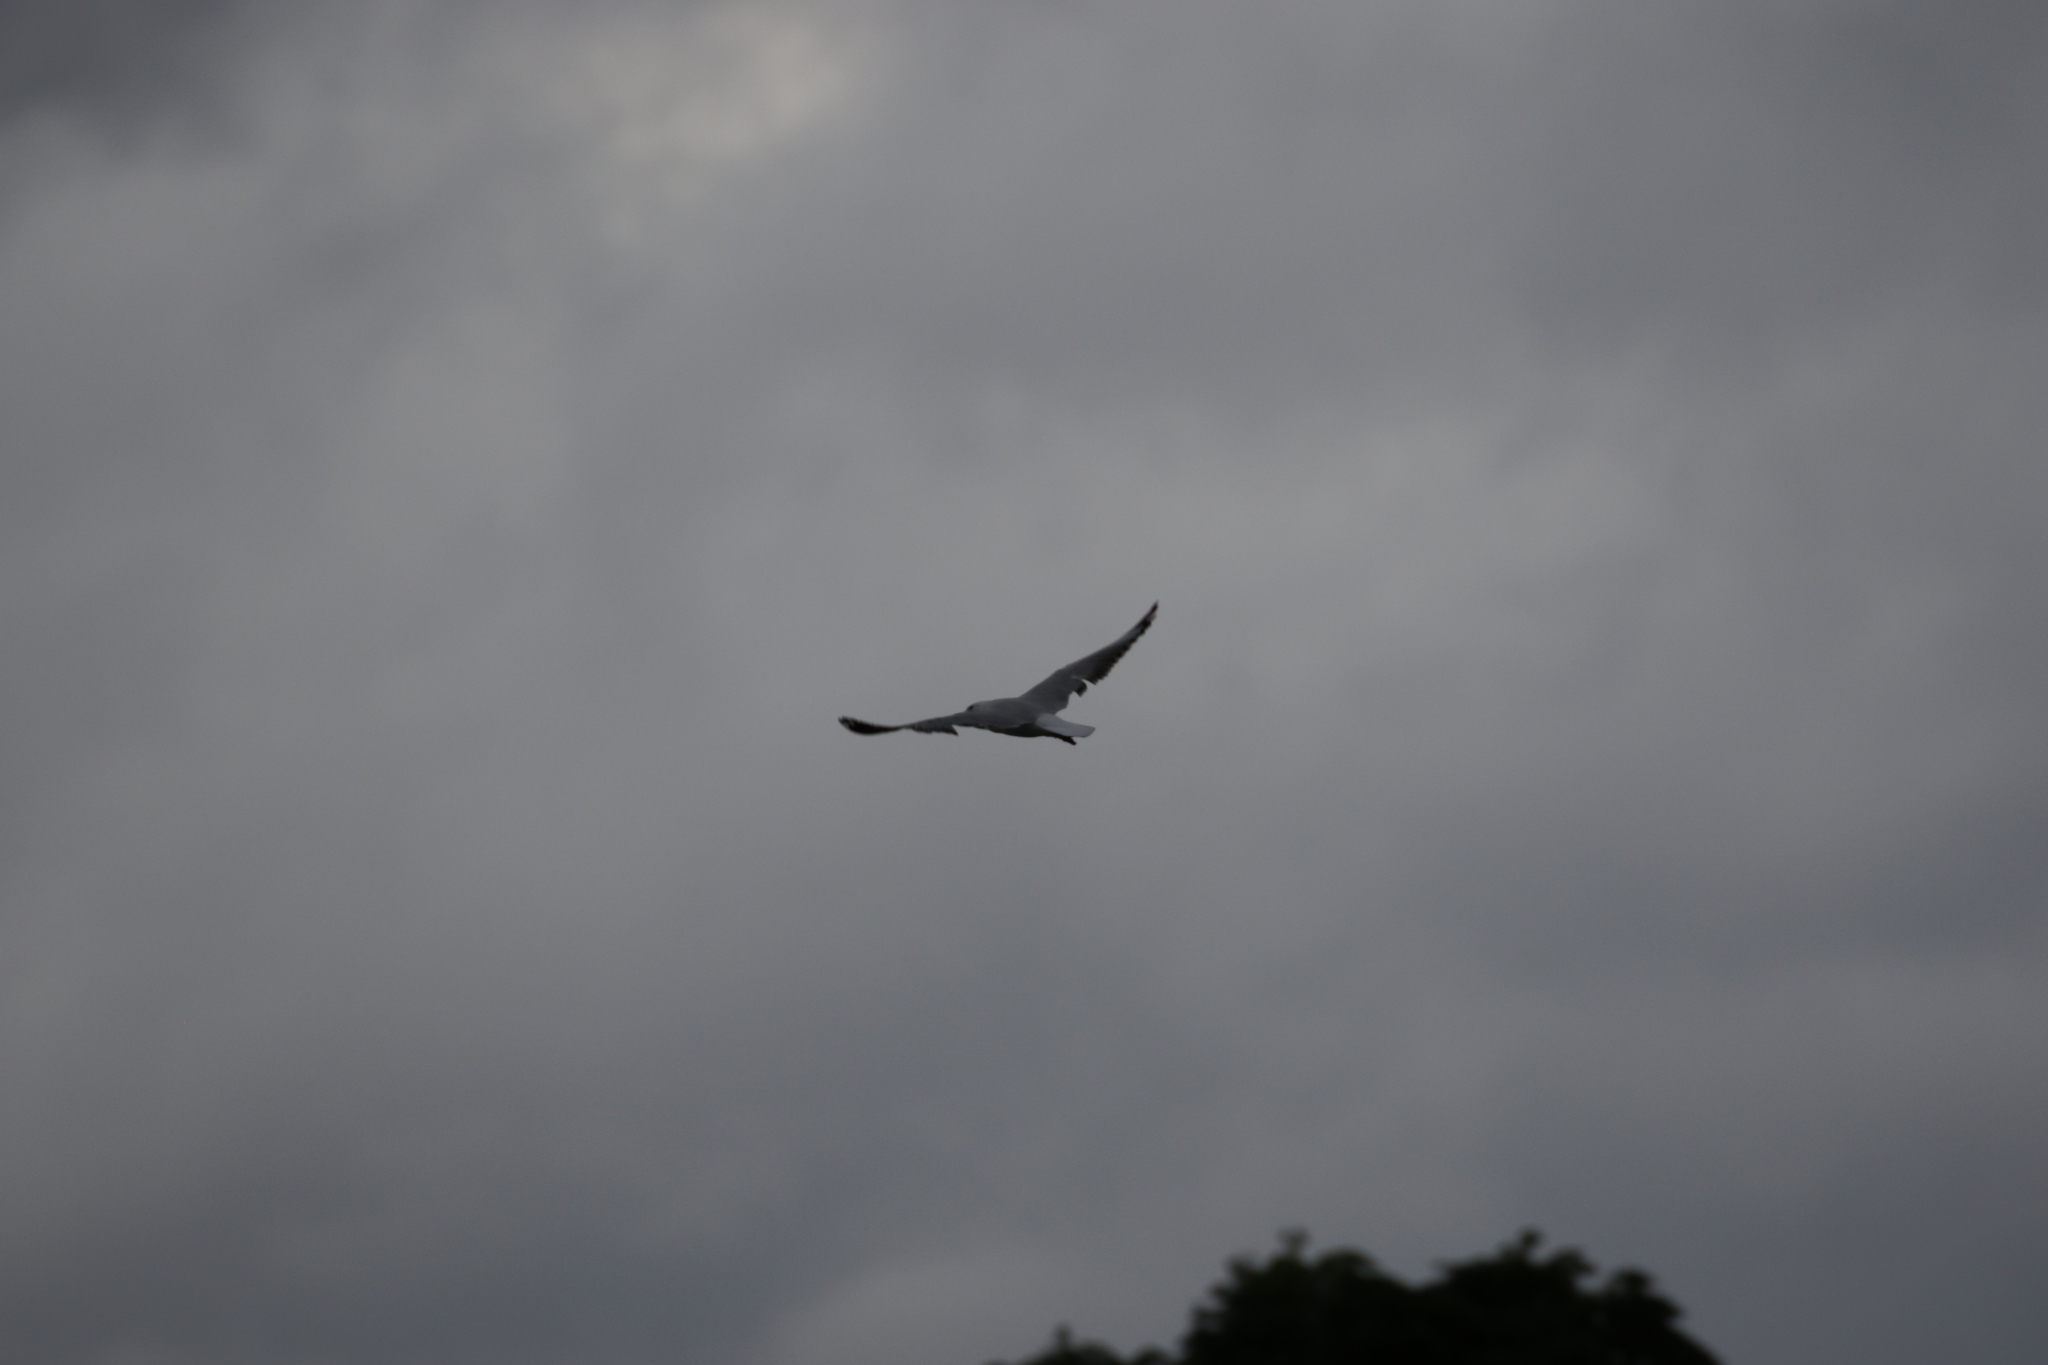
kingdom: Animalia
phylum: Chordata
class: Aves
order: Charadriiformes
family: Laridae
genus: Chroicocephalus
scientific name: Chroicocephalus novaehollandiae
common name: Silver gull
